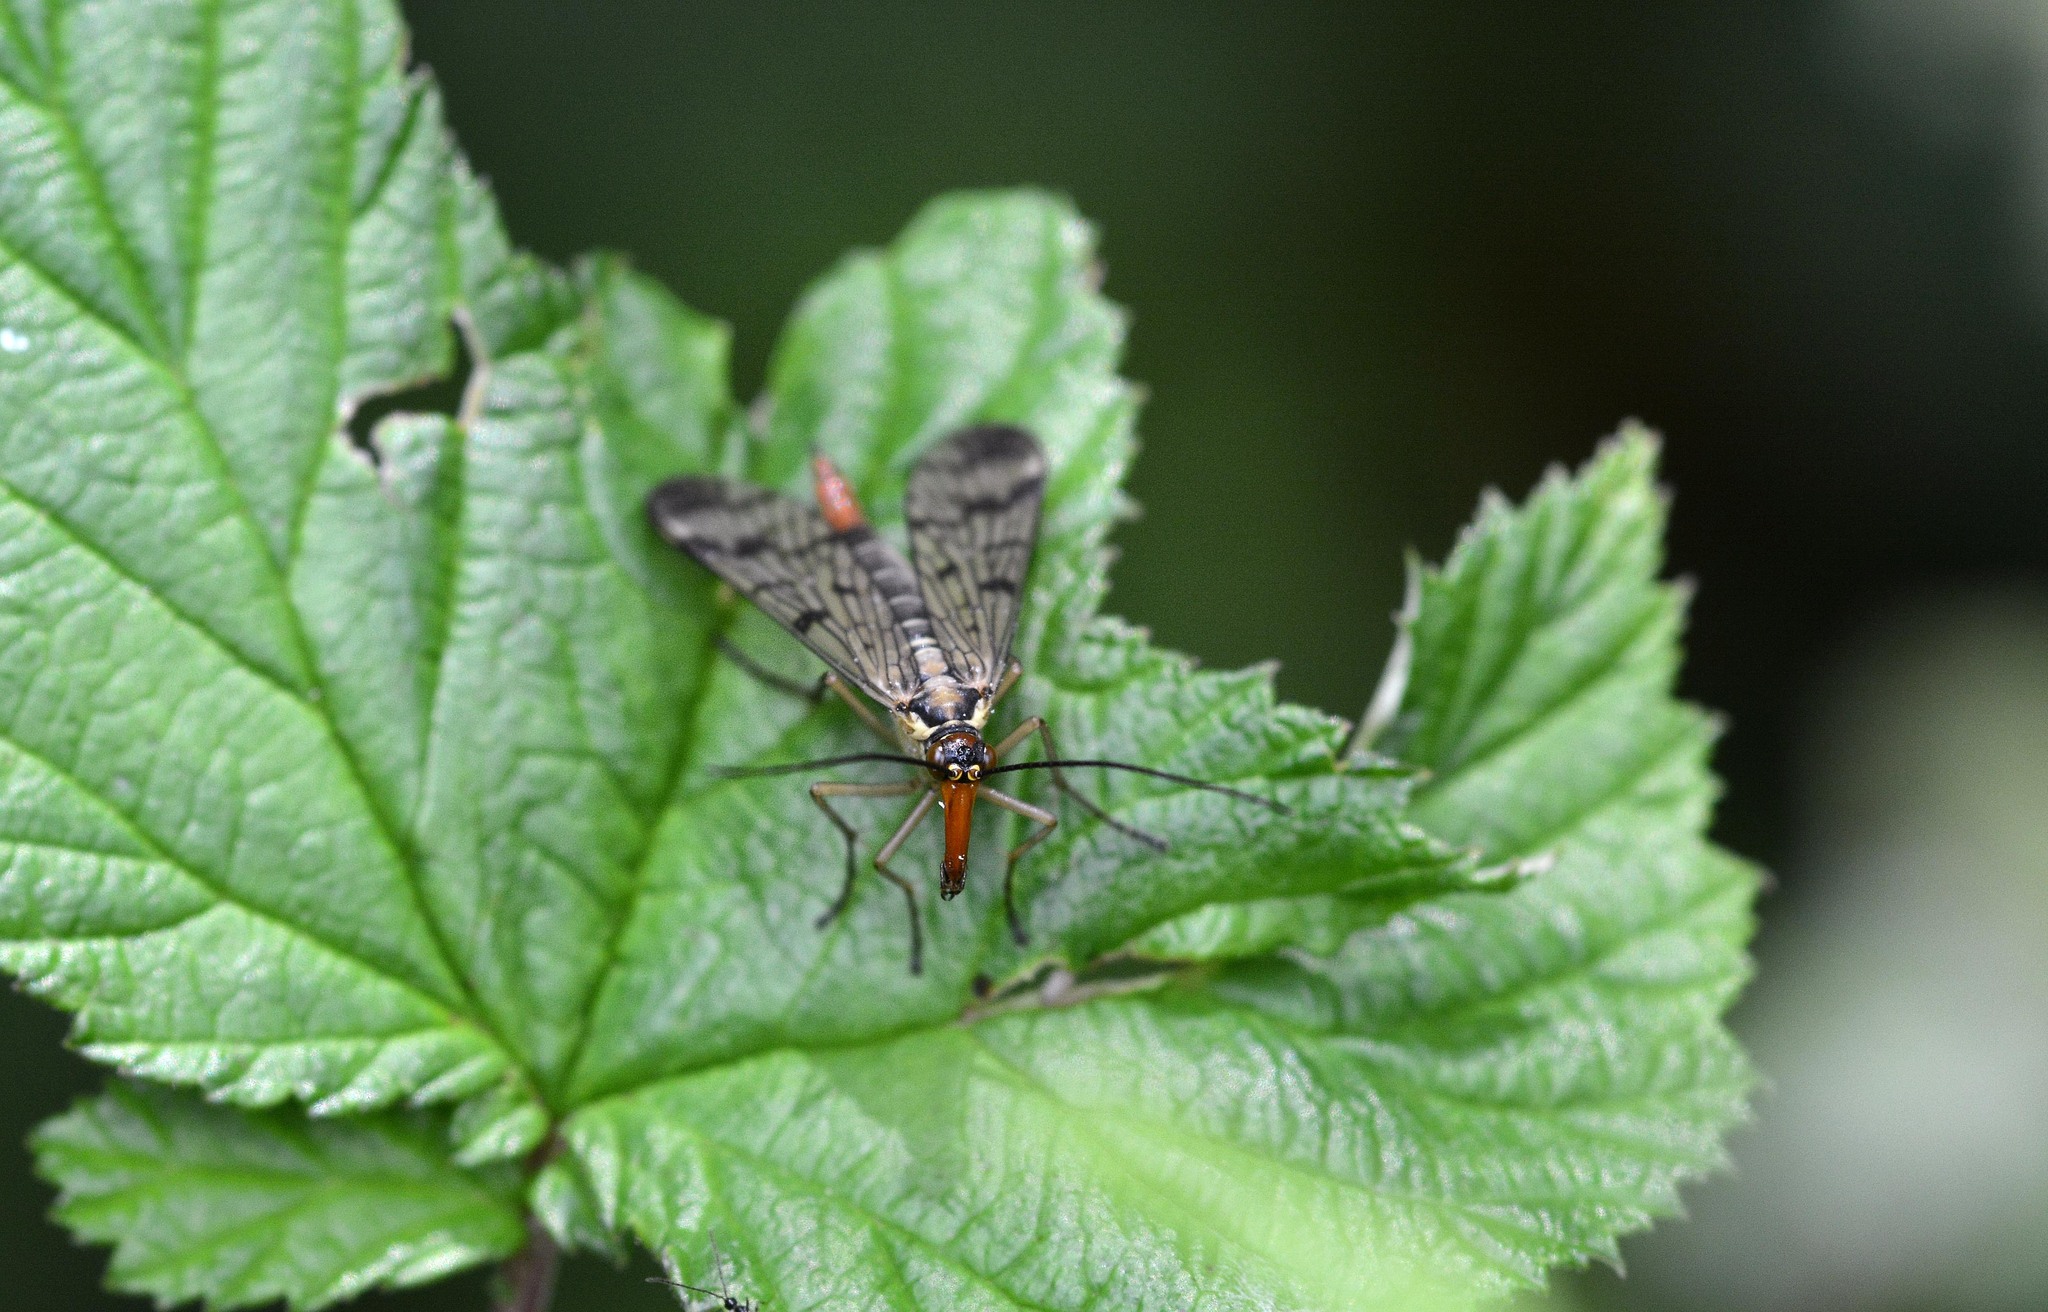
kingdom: Animalia
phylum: Arthropoda
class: Insecta
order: Mecoptera
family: Panorpidae
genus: Panorpa
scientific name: Panorpa communis
